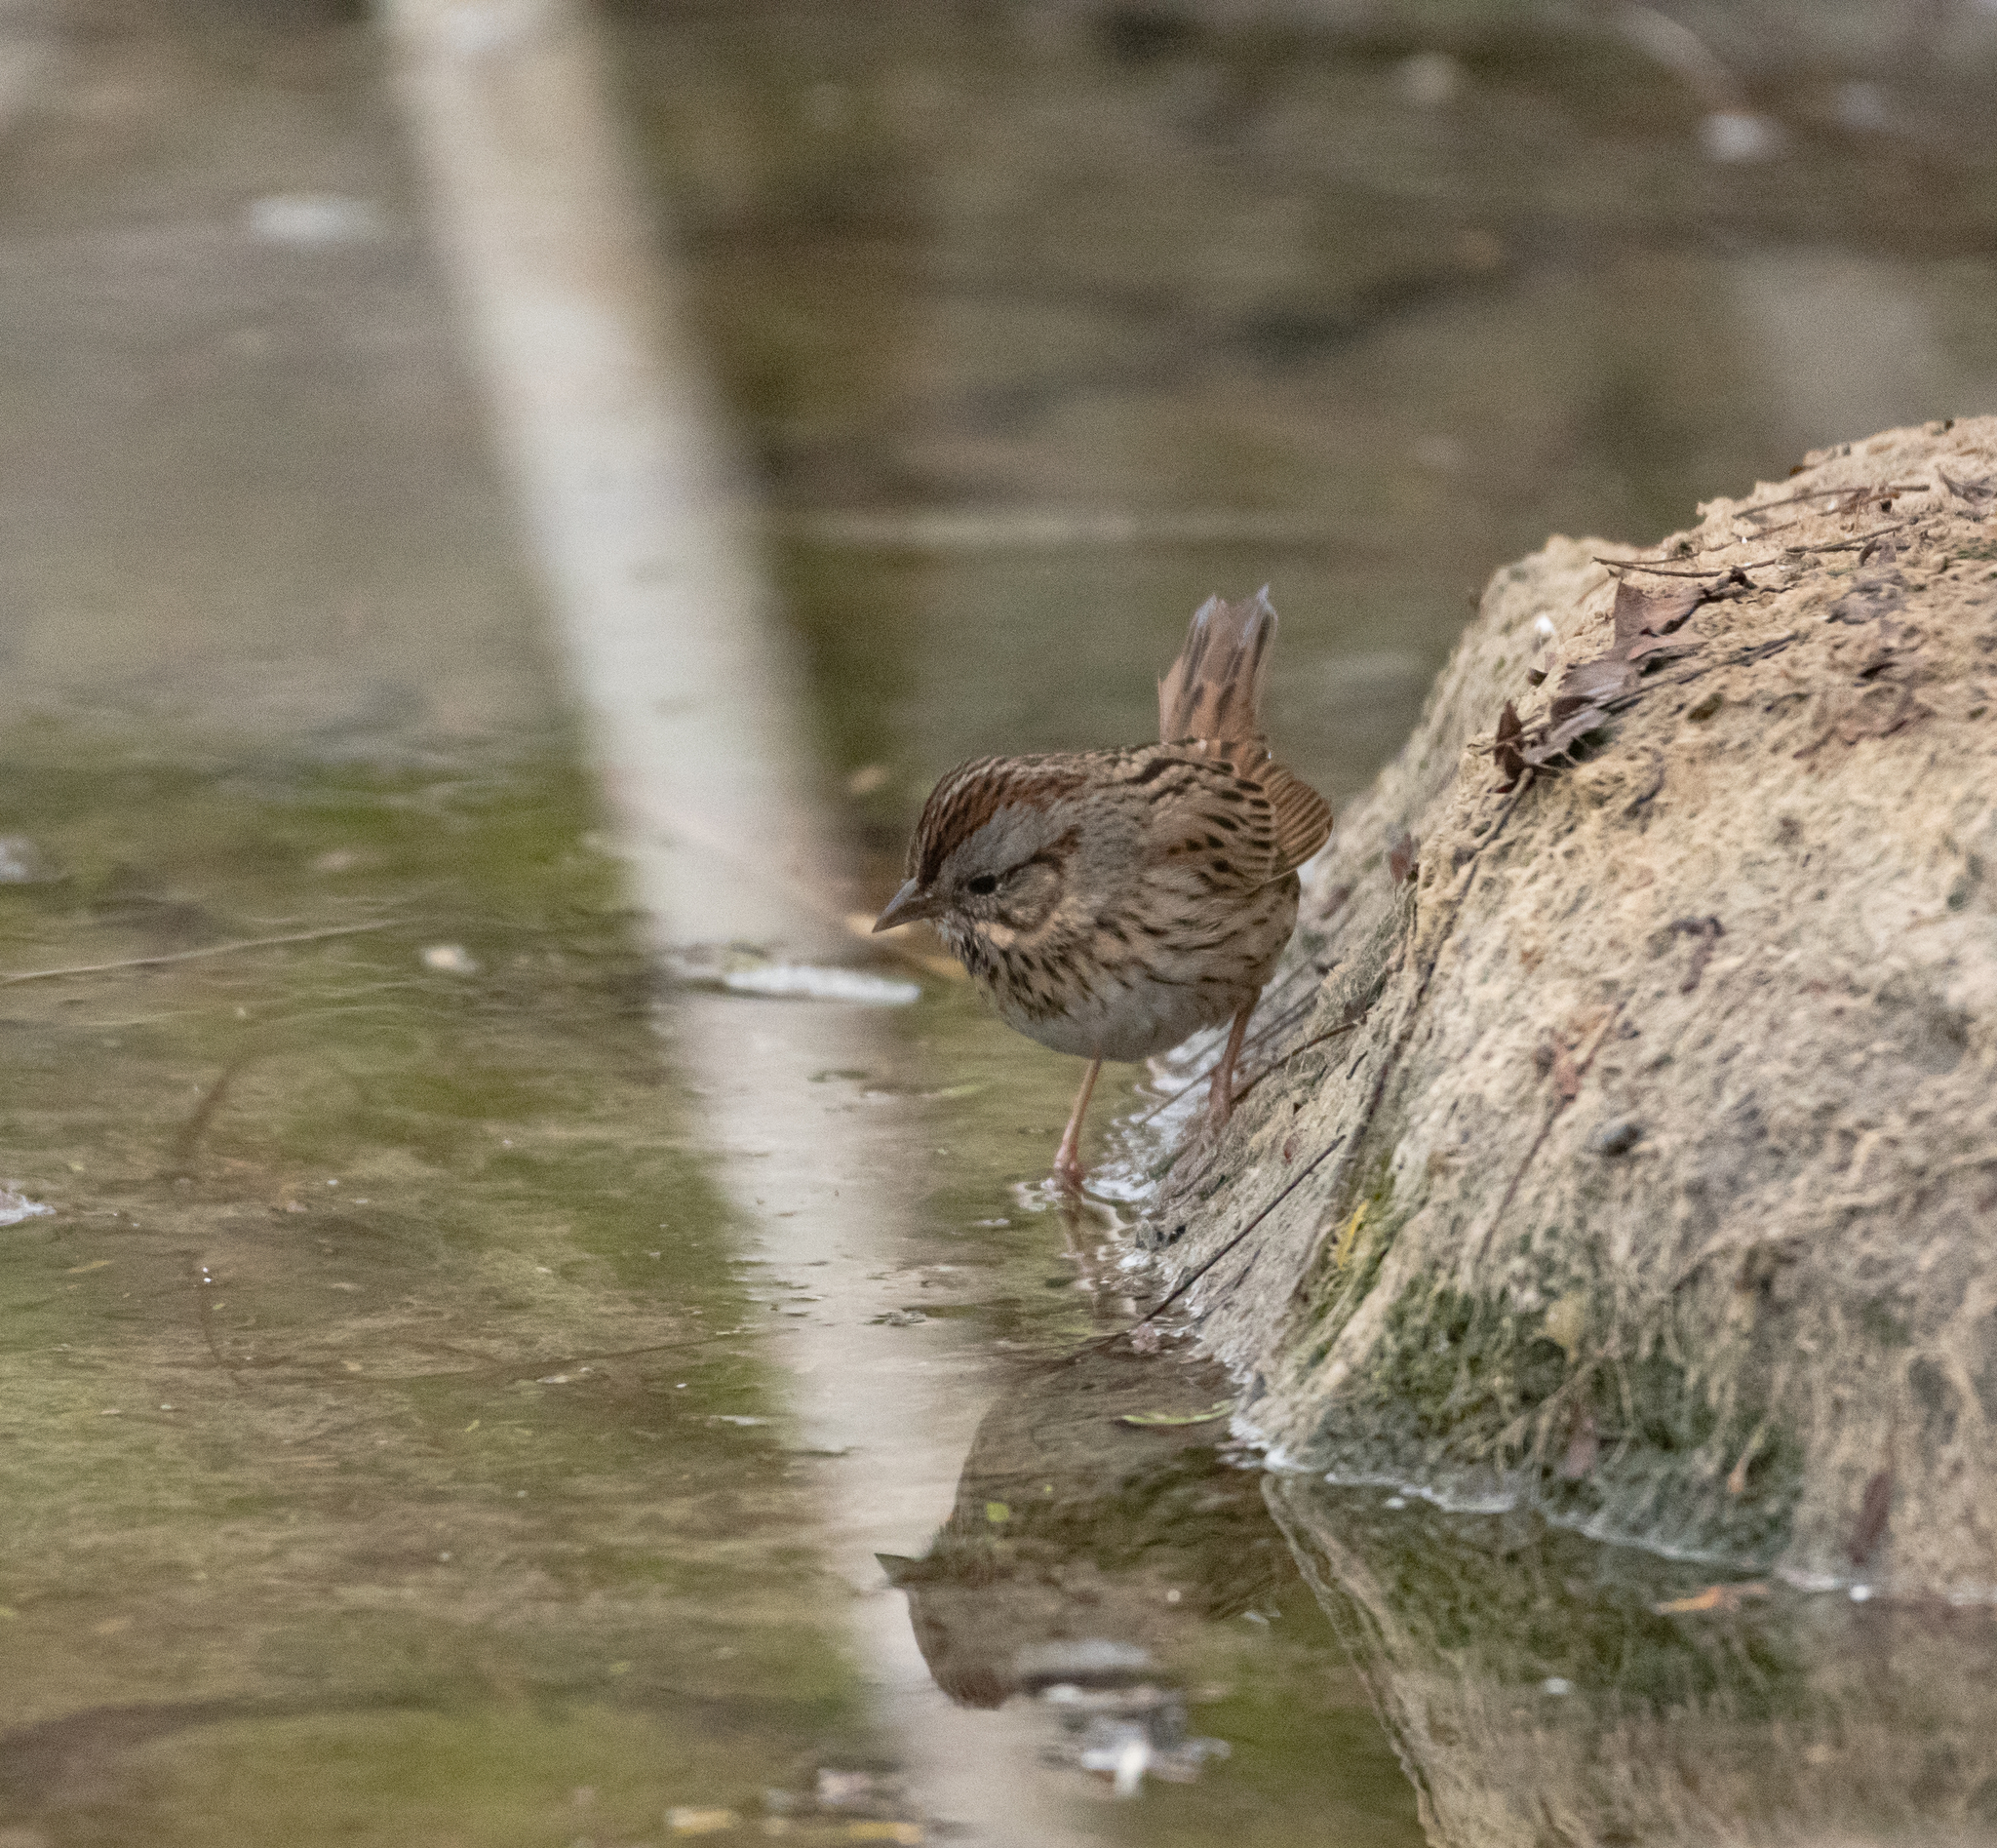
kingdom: Animalia
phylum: Chordata
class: Aves
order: Passeriformes
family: Passerellidae
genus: Melospiza
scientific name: Melospiza lincolnii
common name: Lincoln's sparrow
